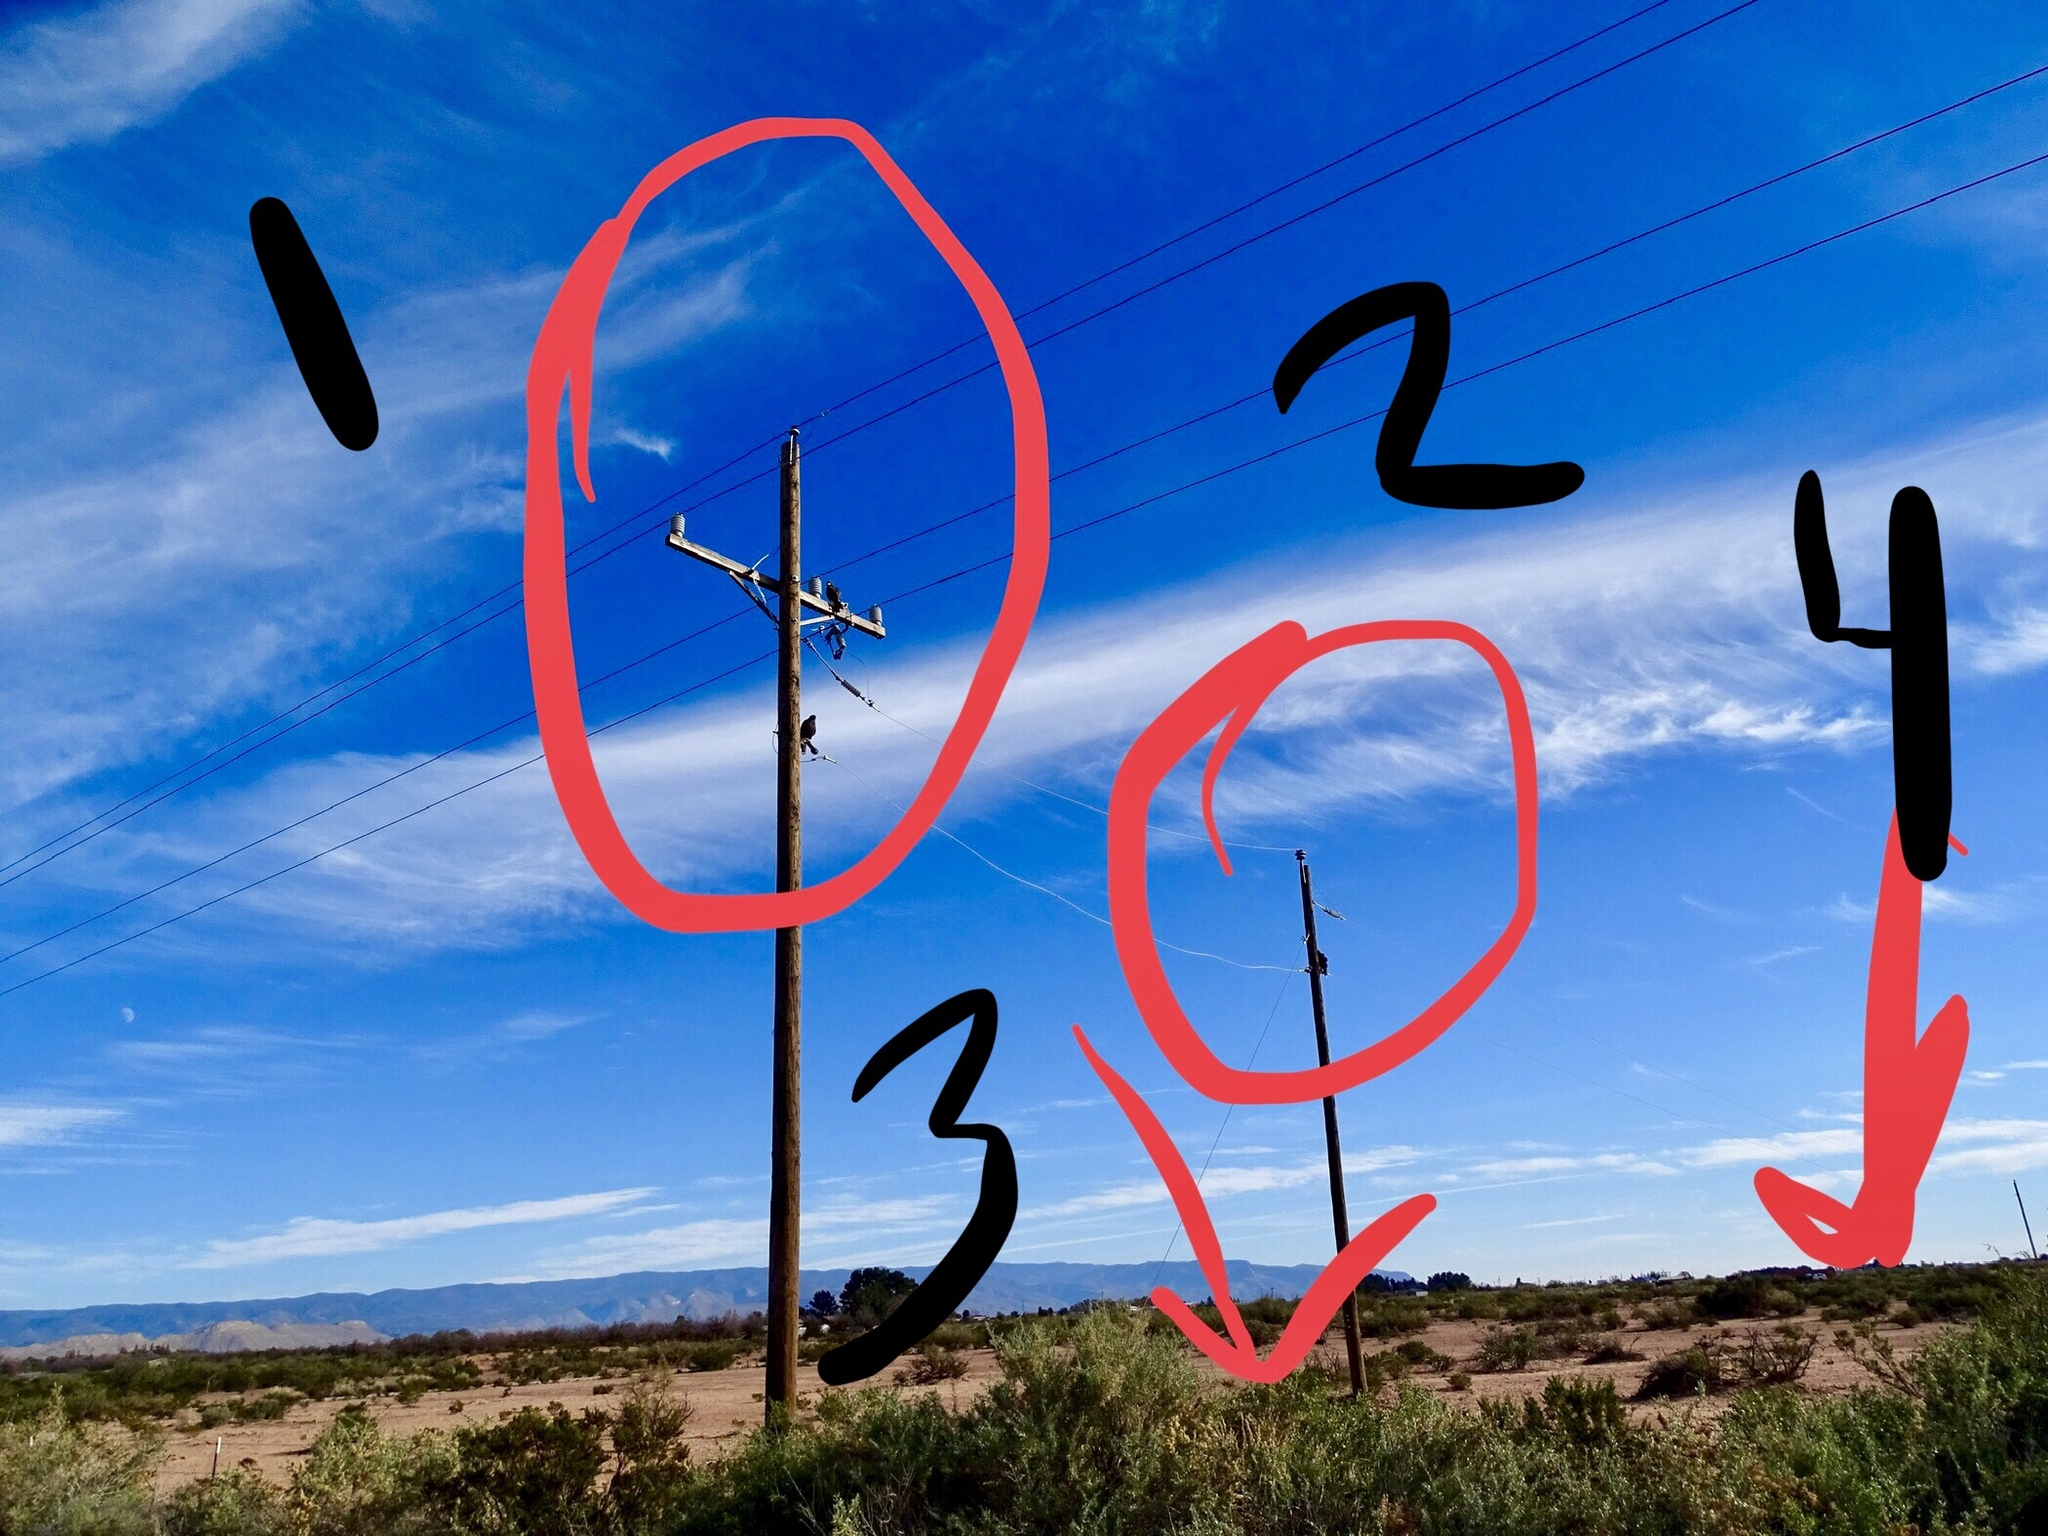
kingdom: Animalia
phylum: Chordata
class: Aves
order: Accipitriformes
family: Accipitridae
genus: Parabuteo
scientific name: Parabuteo unicinctus
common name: Harris's hawk
